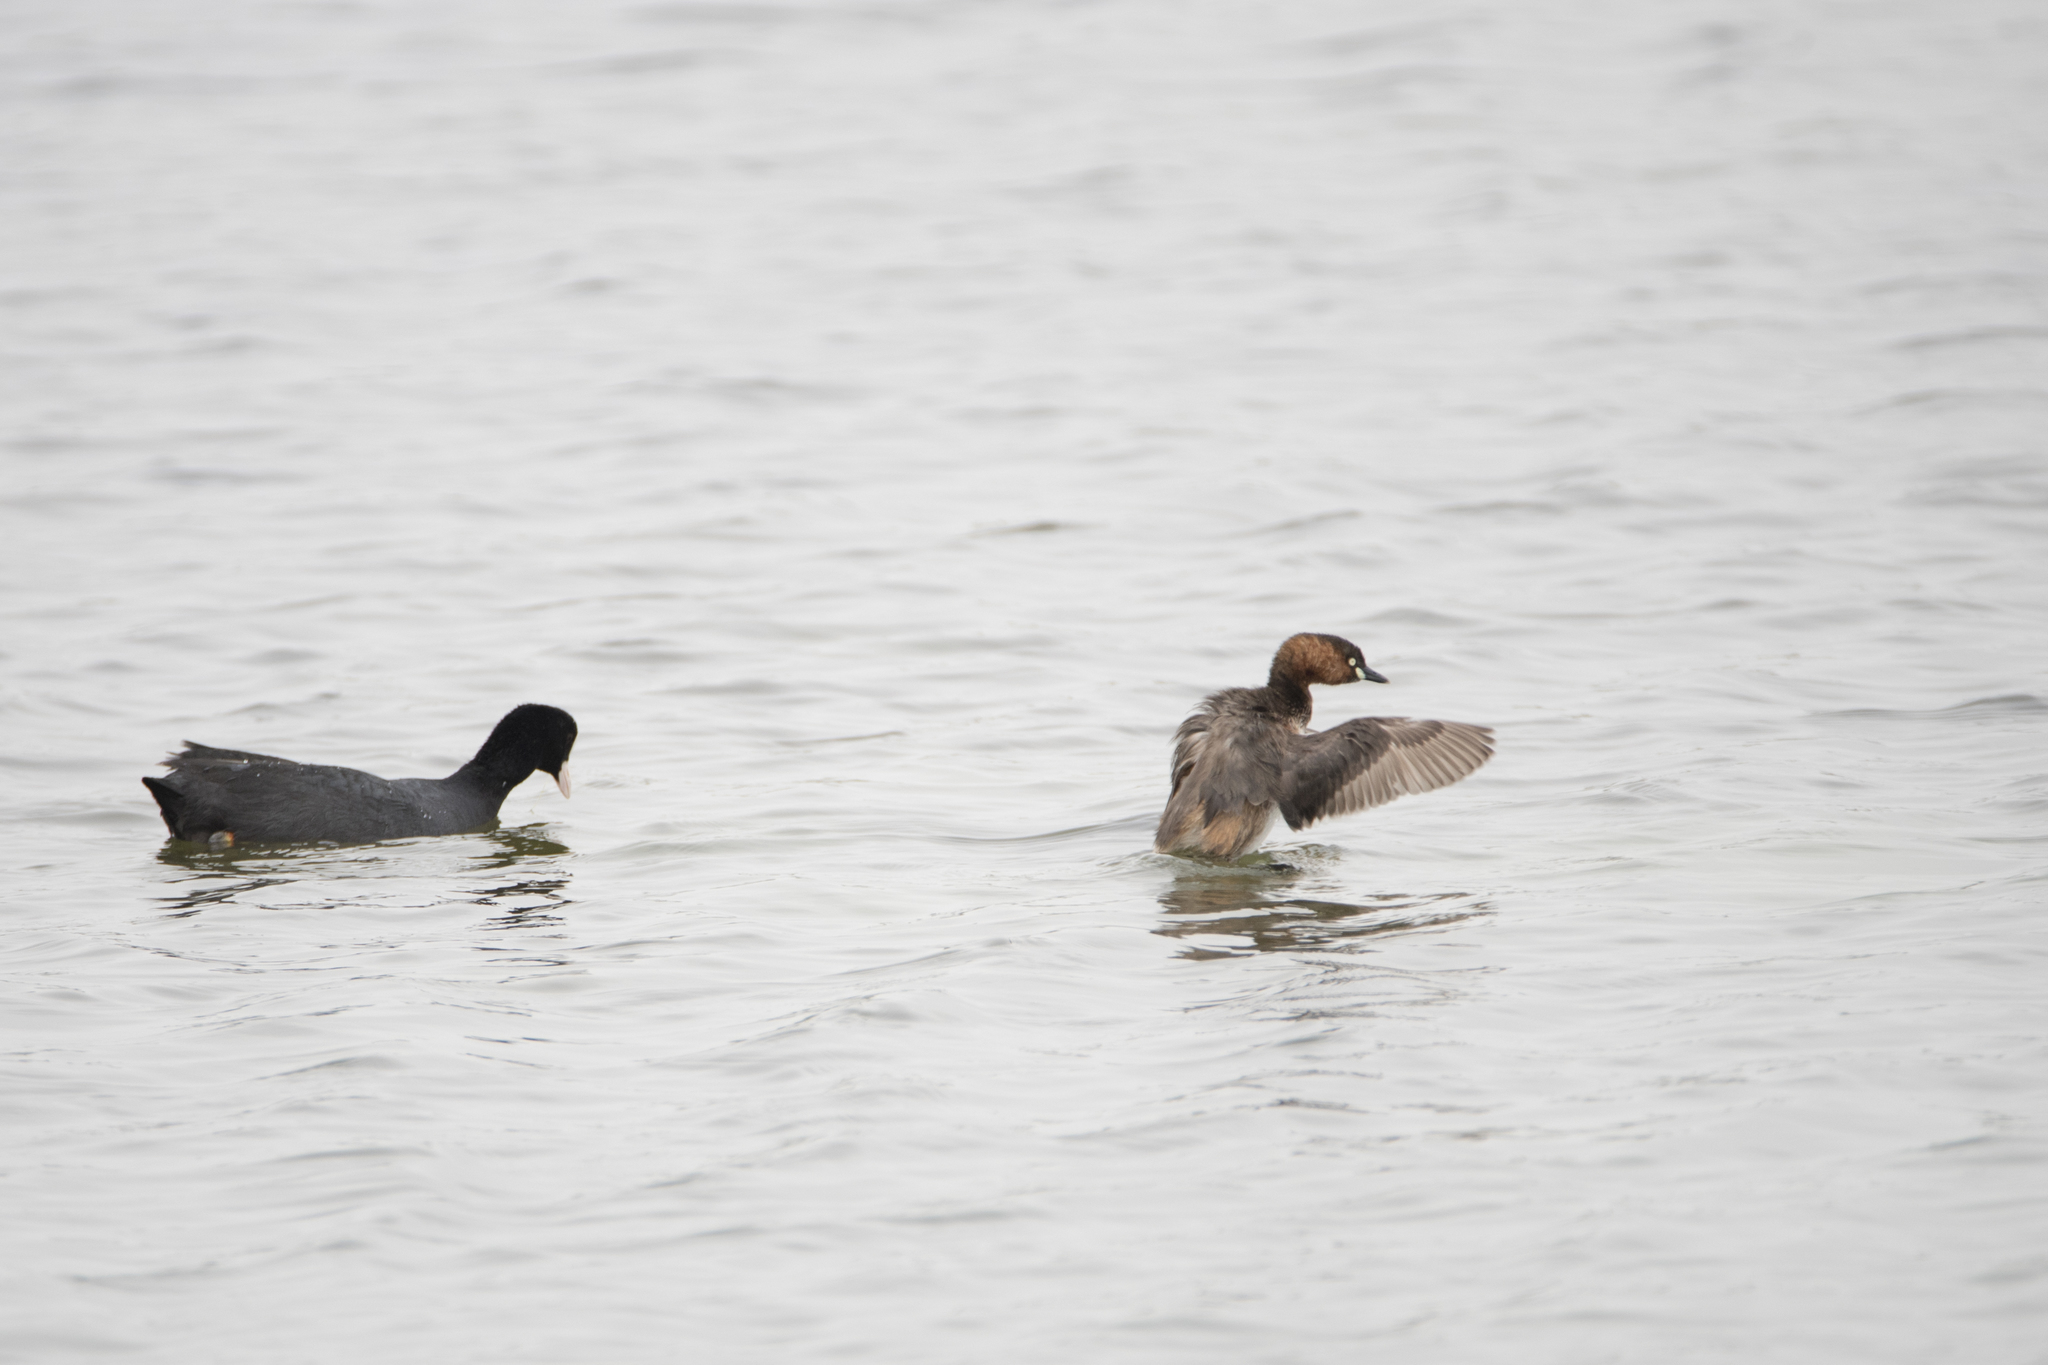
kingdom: Animalia
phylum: Chordata
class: Aves
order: Gruiformes
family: Rallidae
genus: Fulica
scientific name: Fulica atra
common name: Eurasian coot
